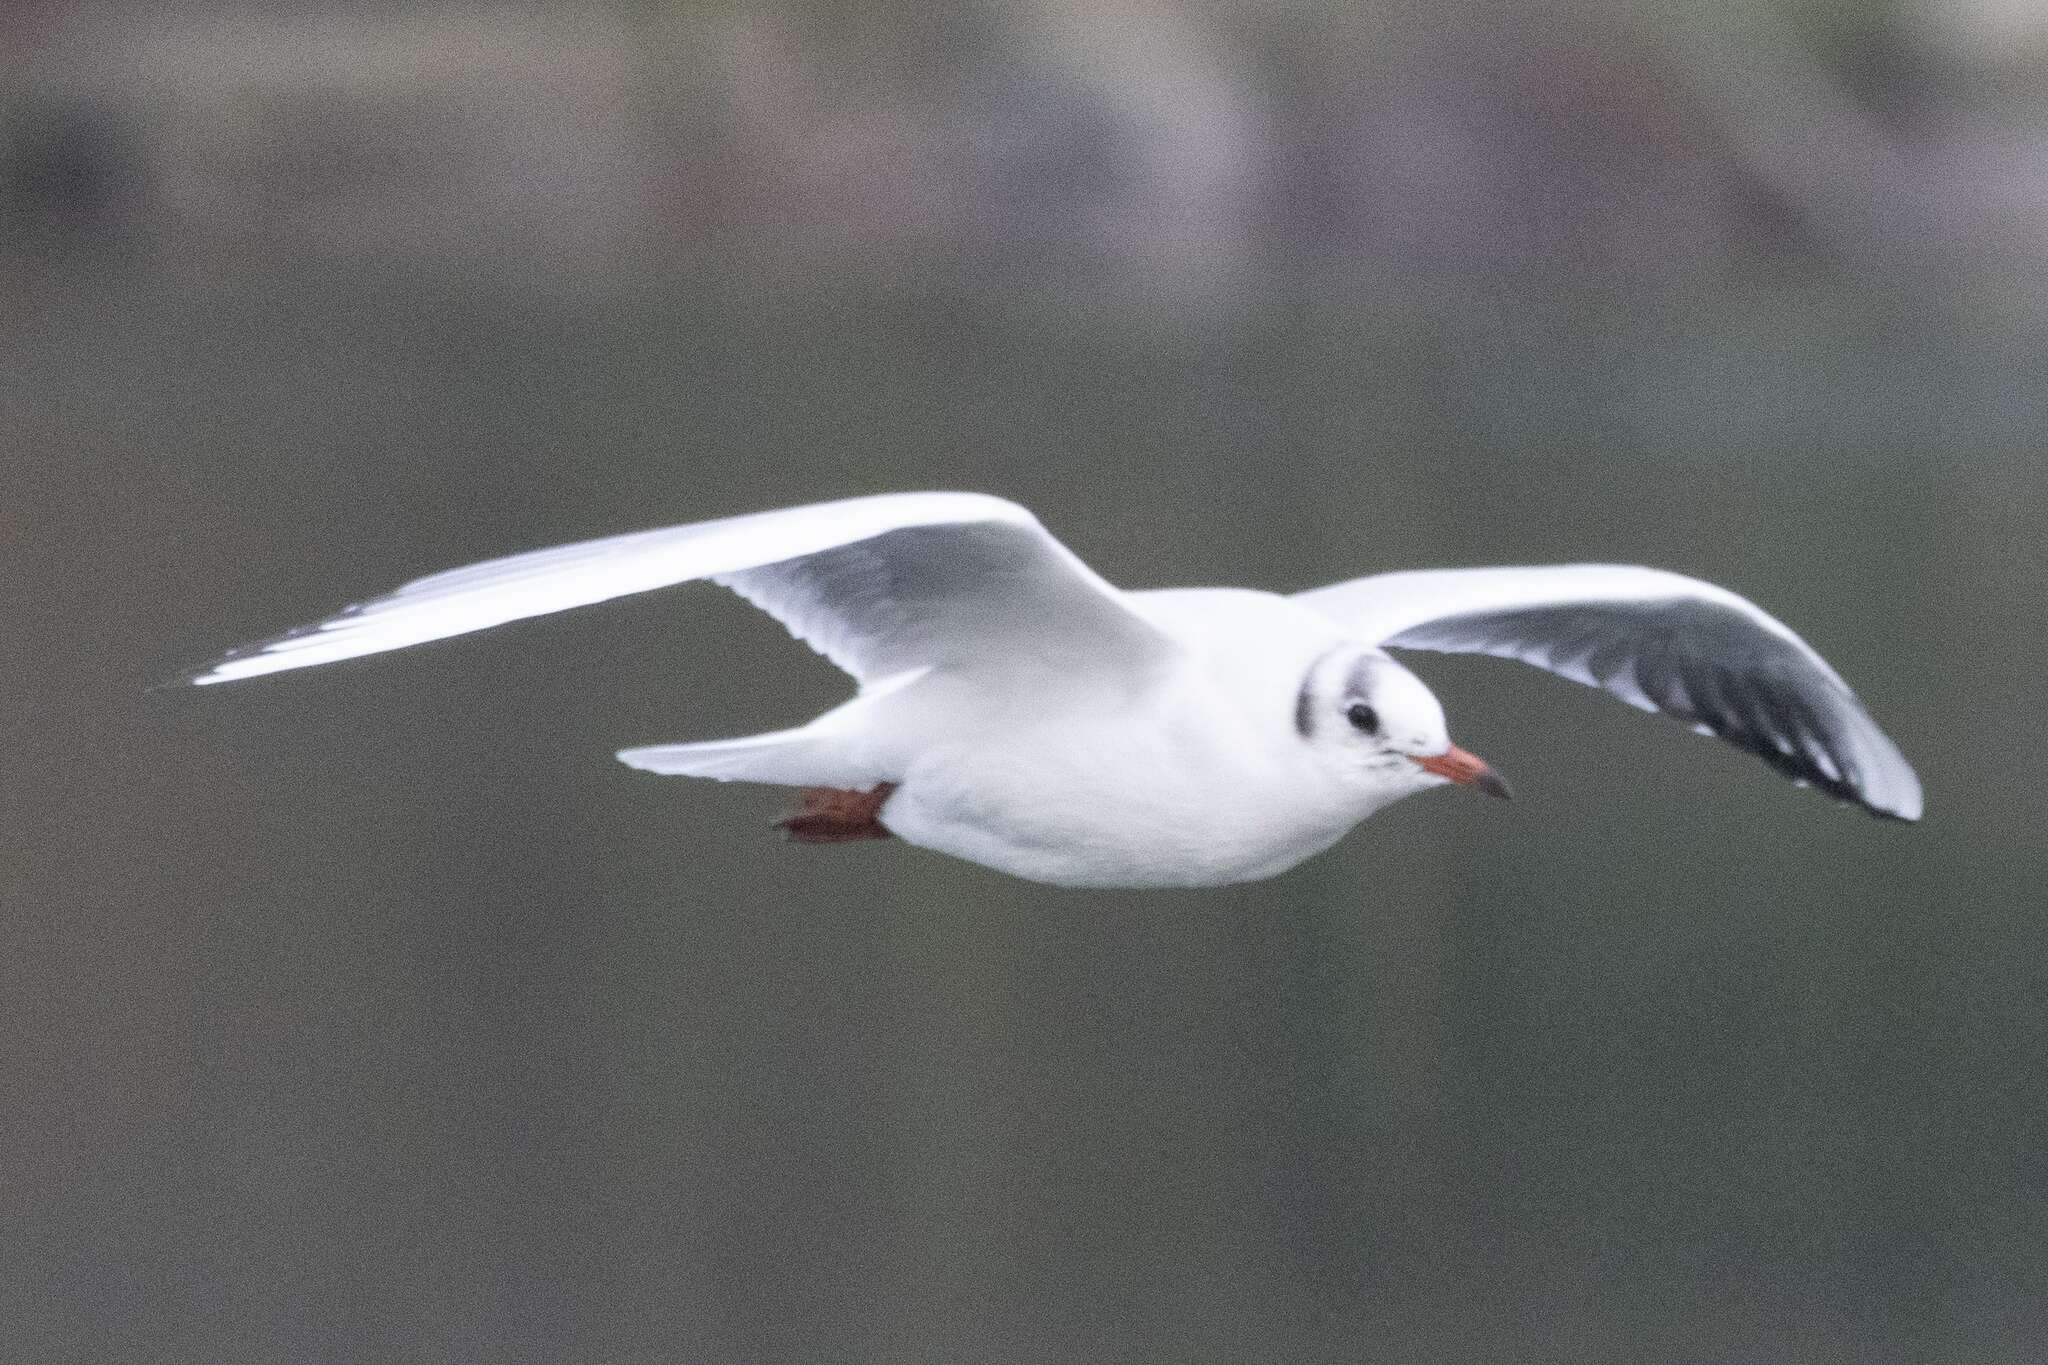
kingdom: Animalia
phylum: Chordata
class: Aves
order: Charadriiformes
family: Laridae
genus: Chroicocephalus
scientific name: Chroicocephalus ridibundus
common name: Black-headed gull
